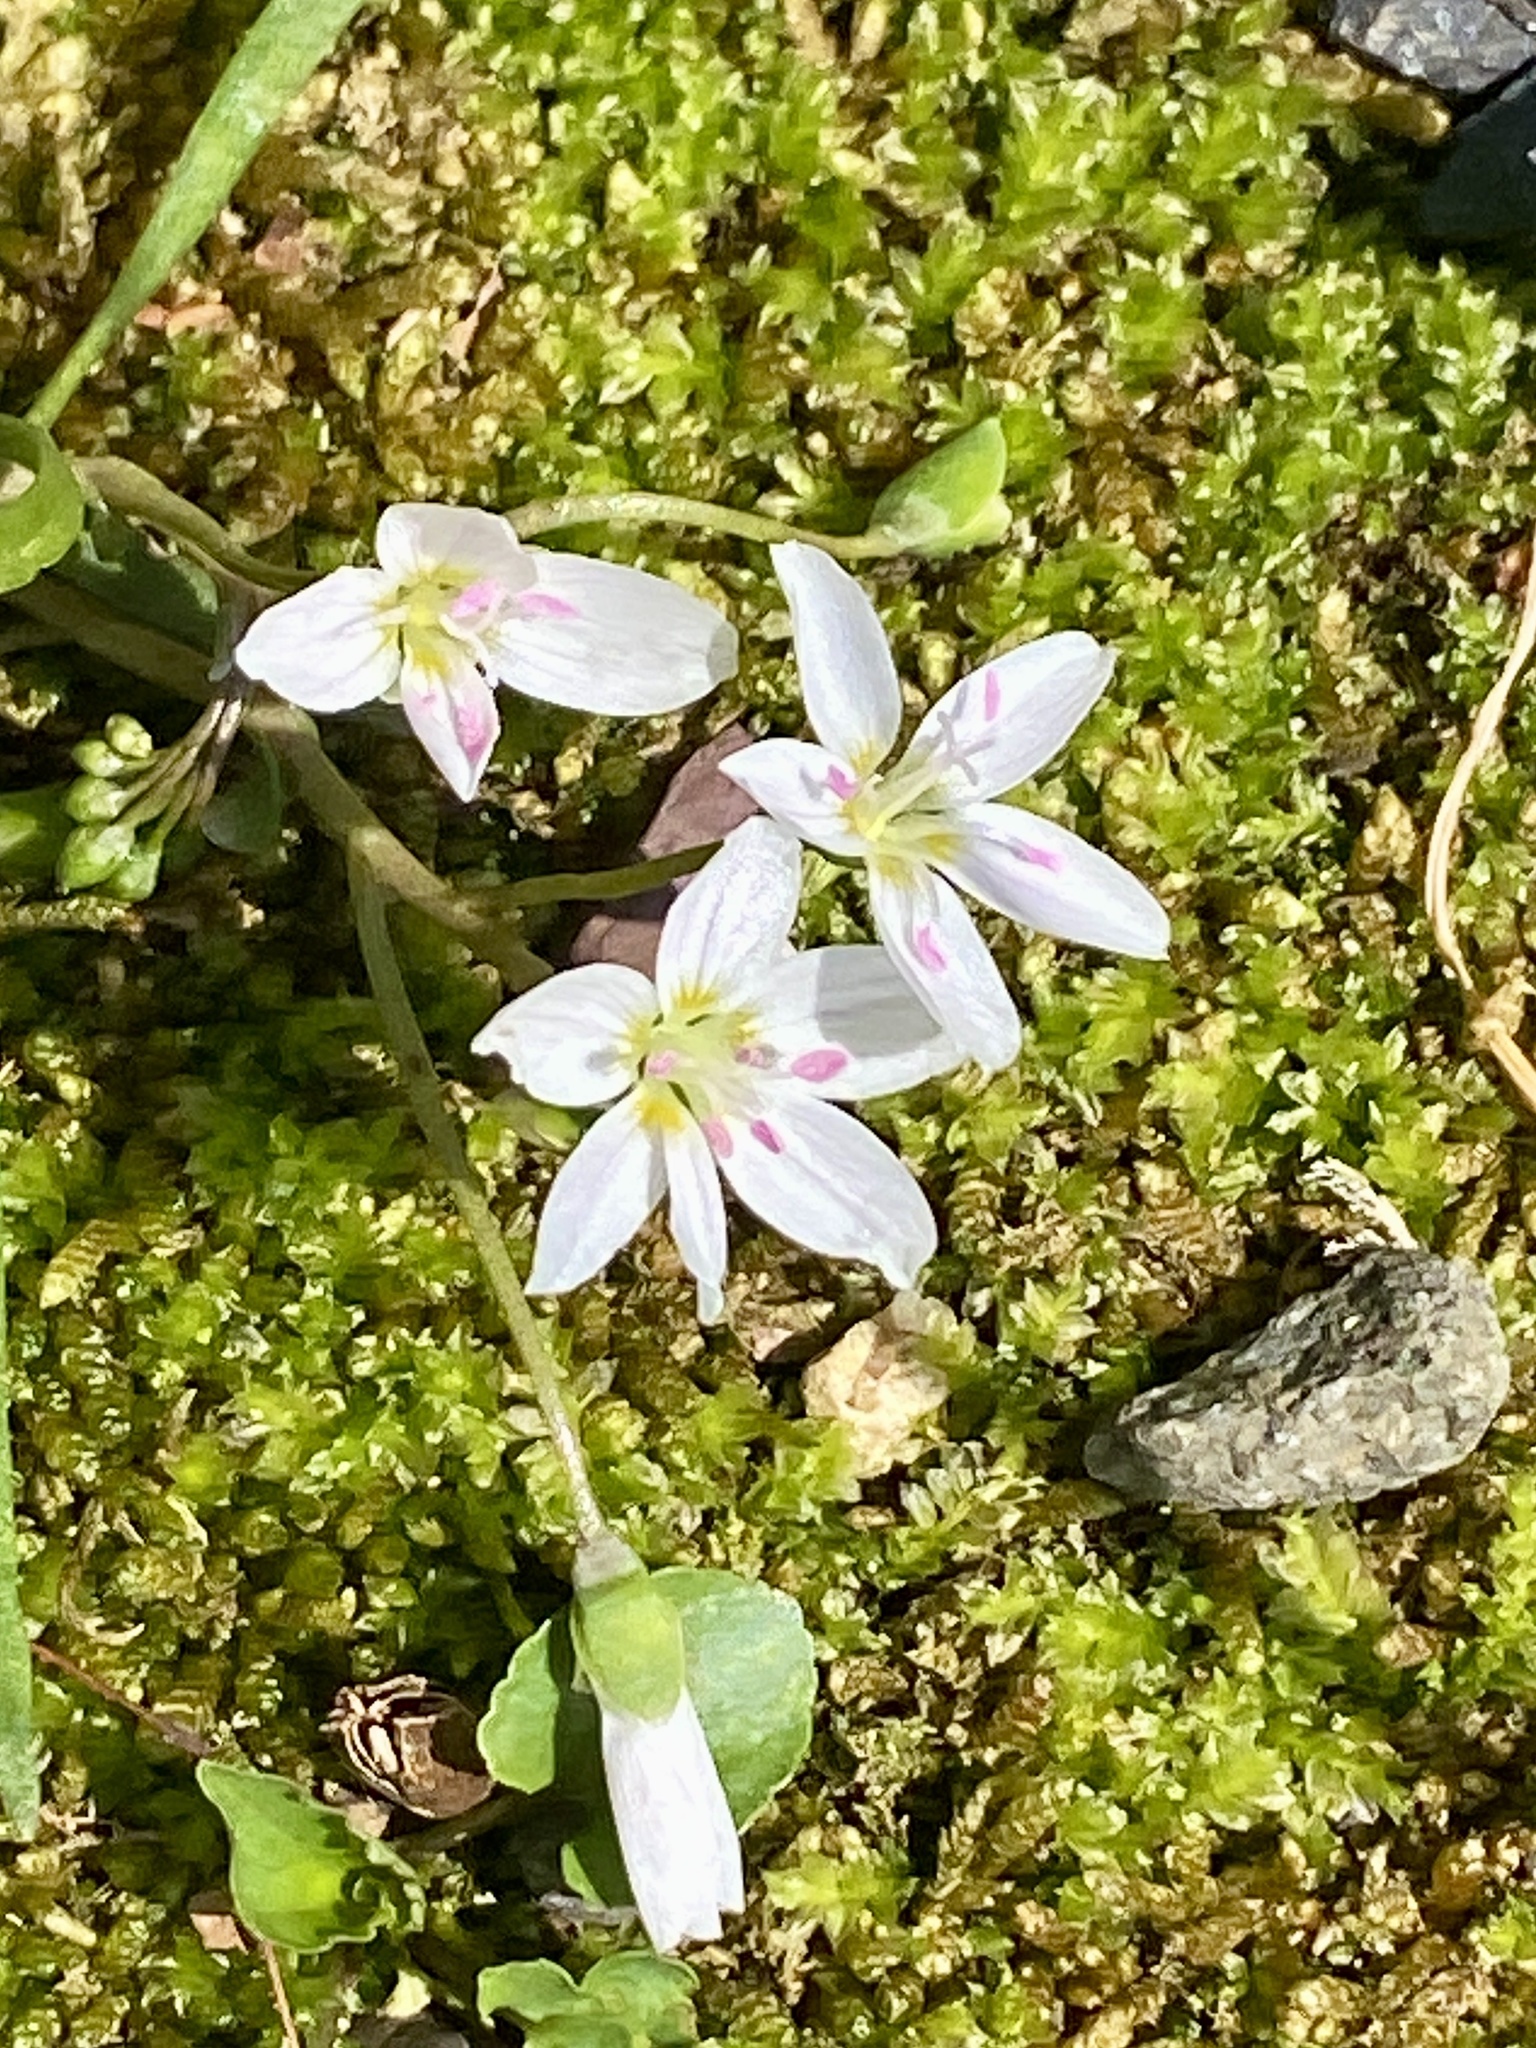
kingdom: Plantae
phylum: Tracheophyta
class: Magnoliopsida
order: Caryophyllales
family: Montiaceae
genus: Claytonia
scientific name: Claytonia virginica
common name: Virginia springbeauty
